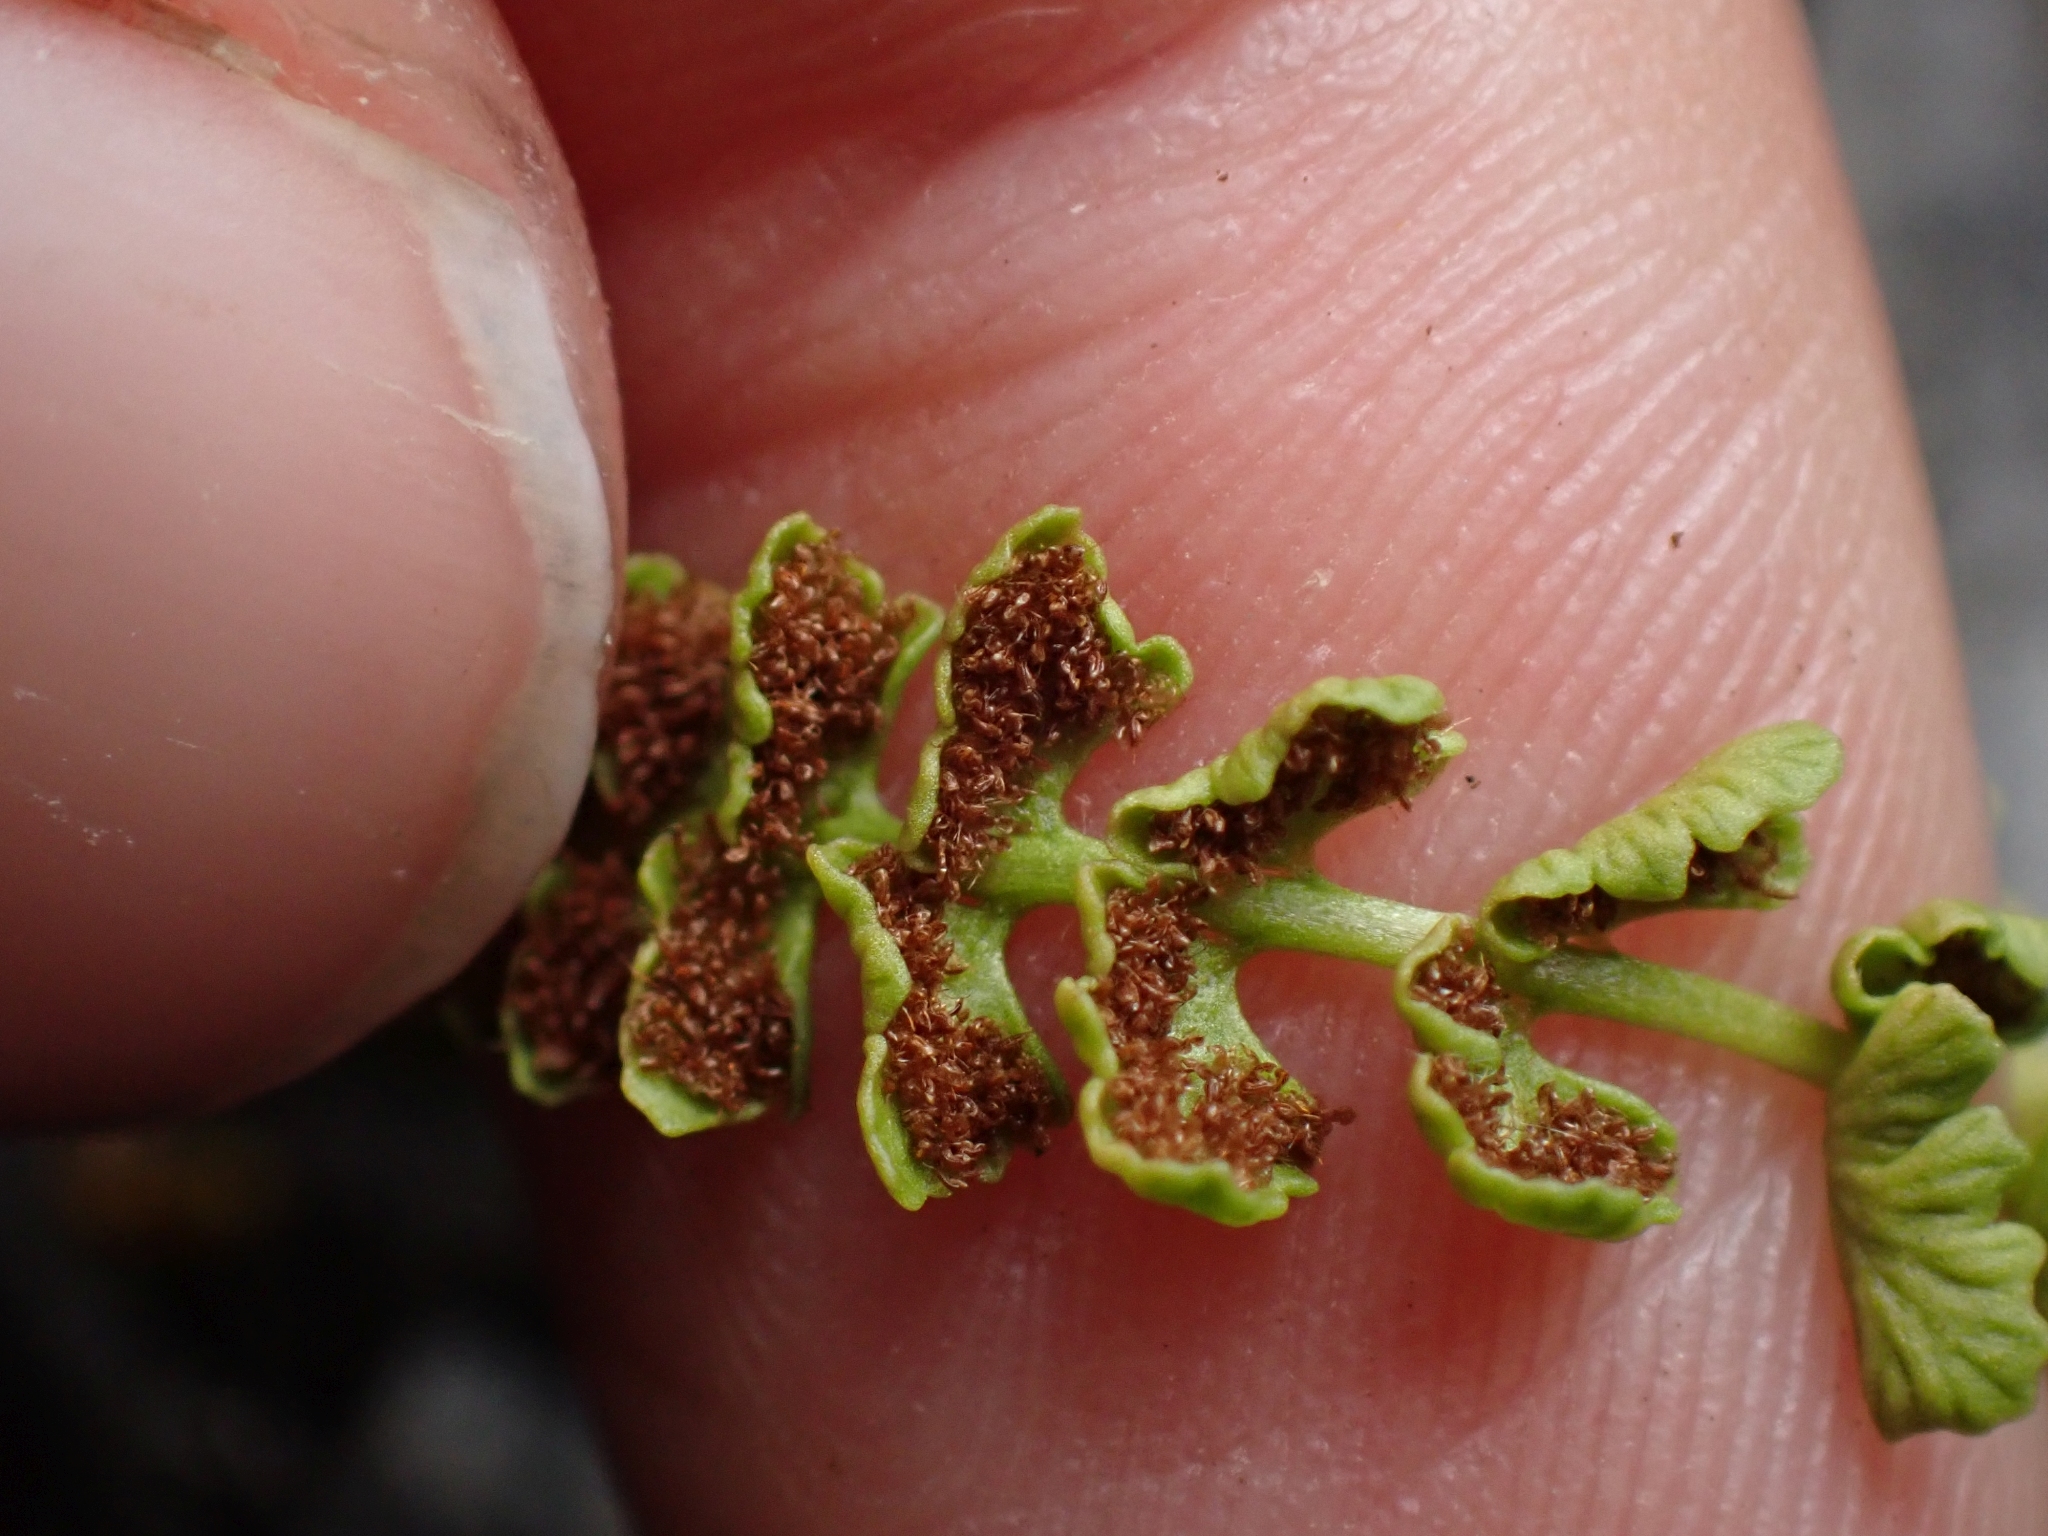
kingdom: Plantae
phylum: Tracheophyta
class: Polypodiopsida
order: Polypodiales
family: Woodsiaceae
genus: Woodsia
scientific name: Woodsia glabella
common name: Smooth woodsia
